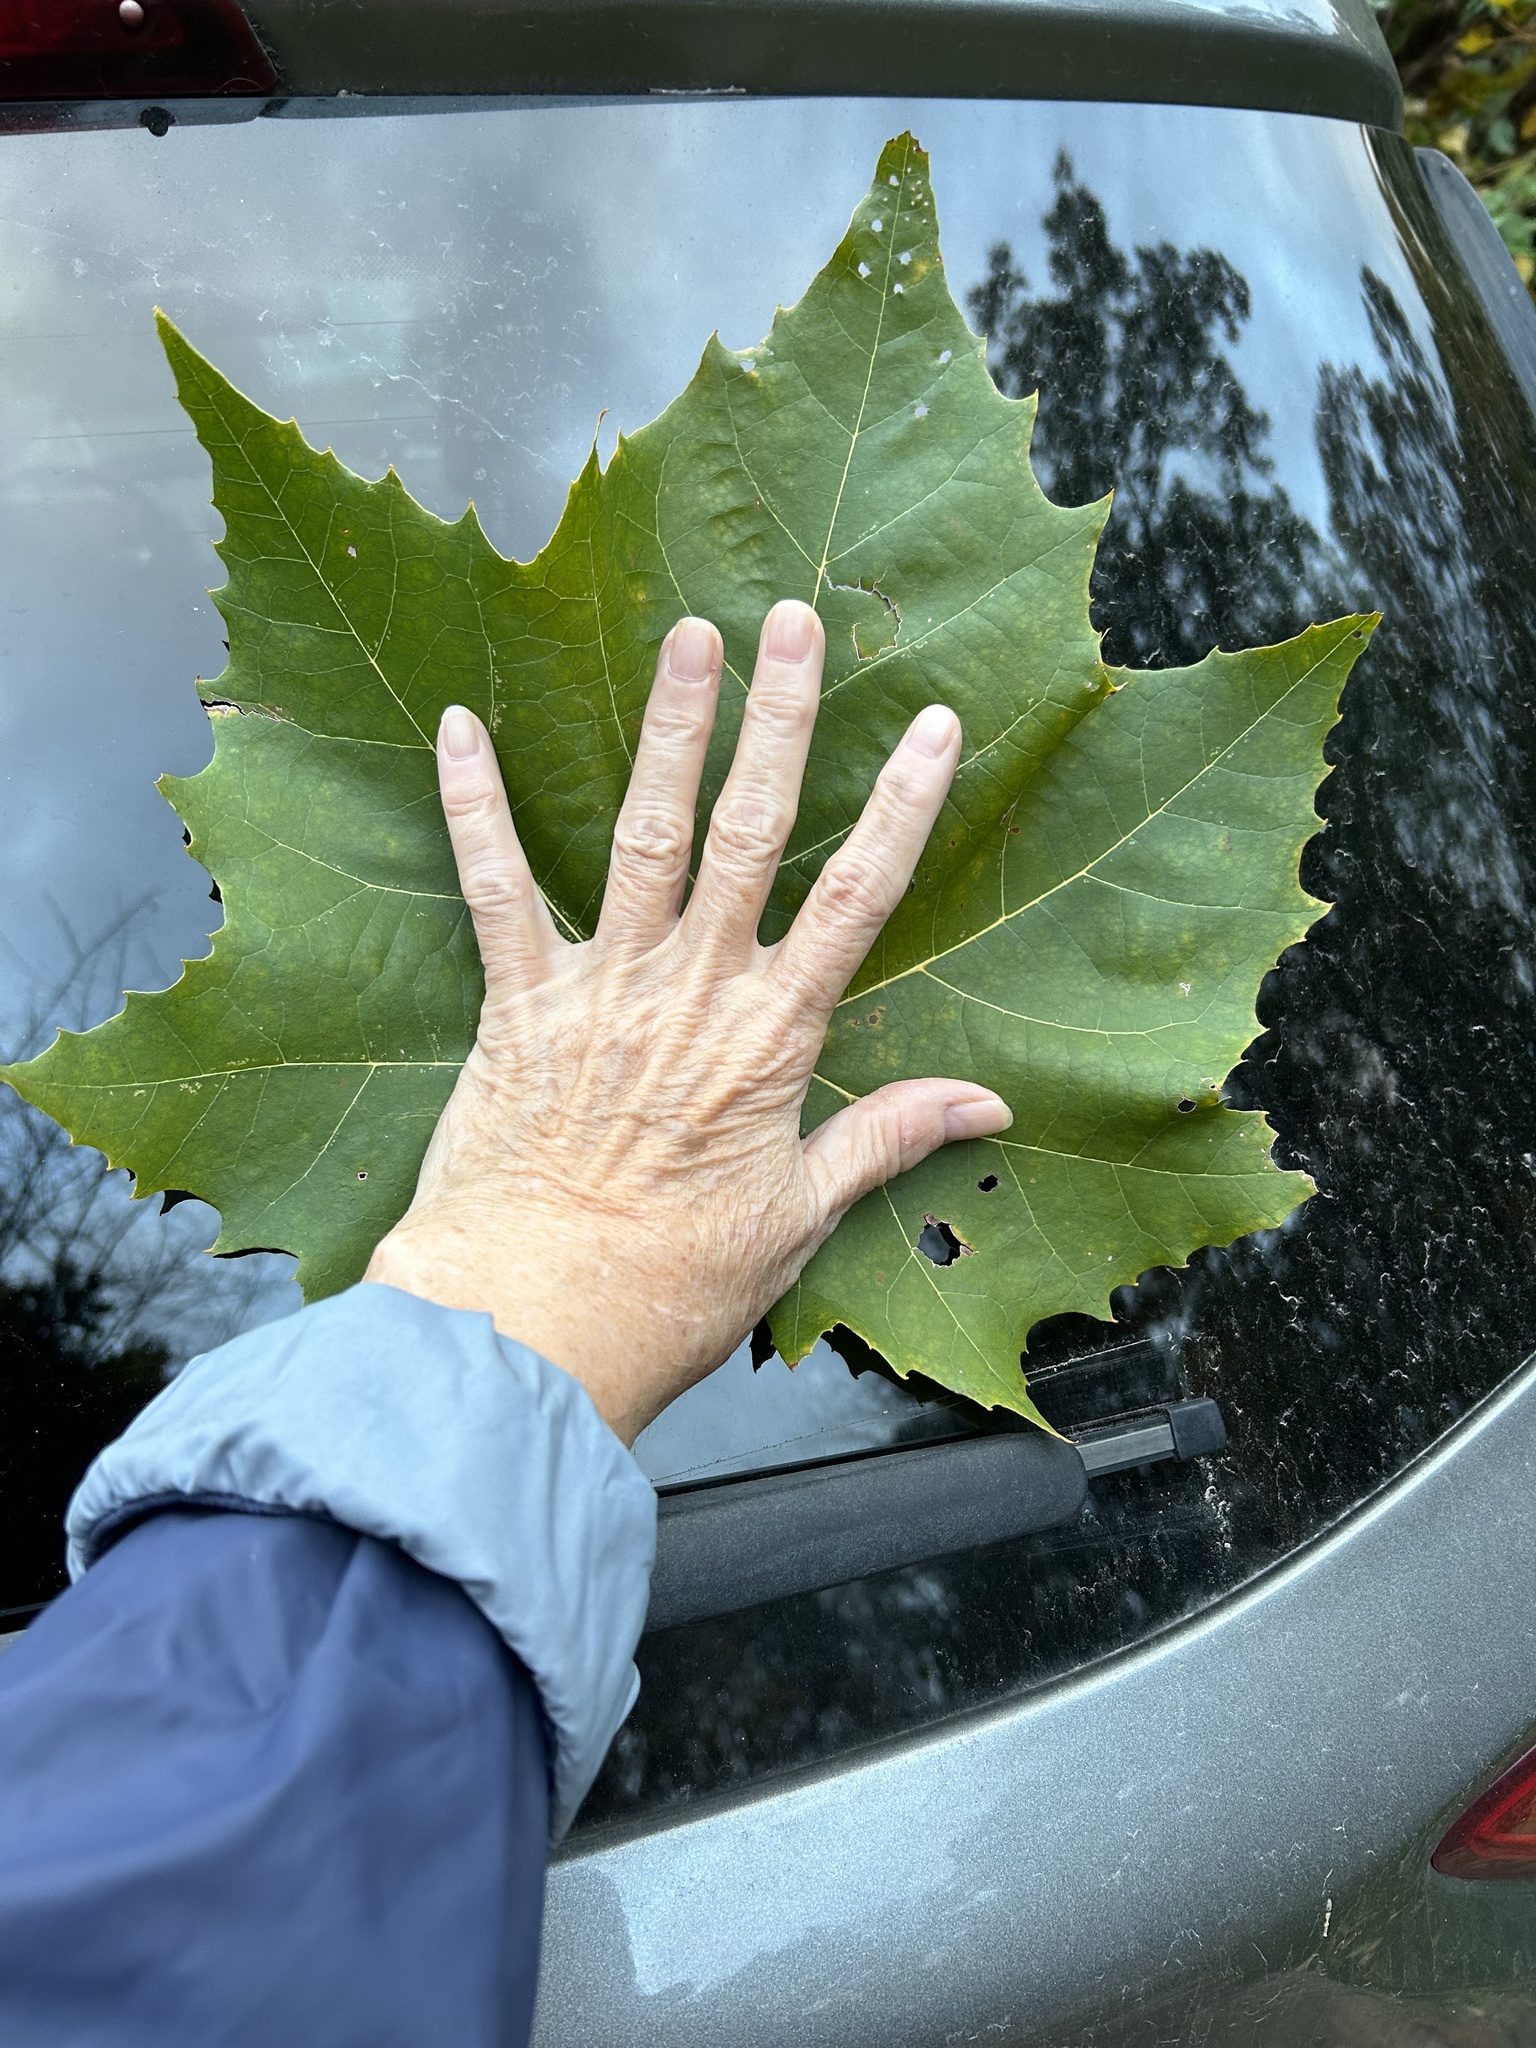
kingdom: Plantae
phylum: Tracheophyta
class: Magnoliopsida
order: Proteales
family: Platanaceae
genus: Platanus
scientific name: Platanus occidentalis
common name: American sycamore
